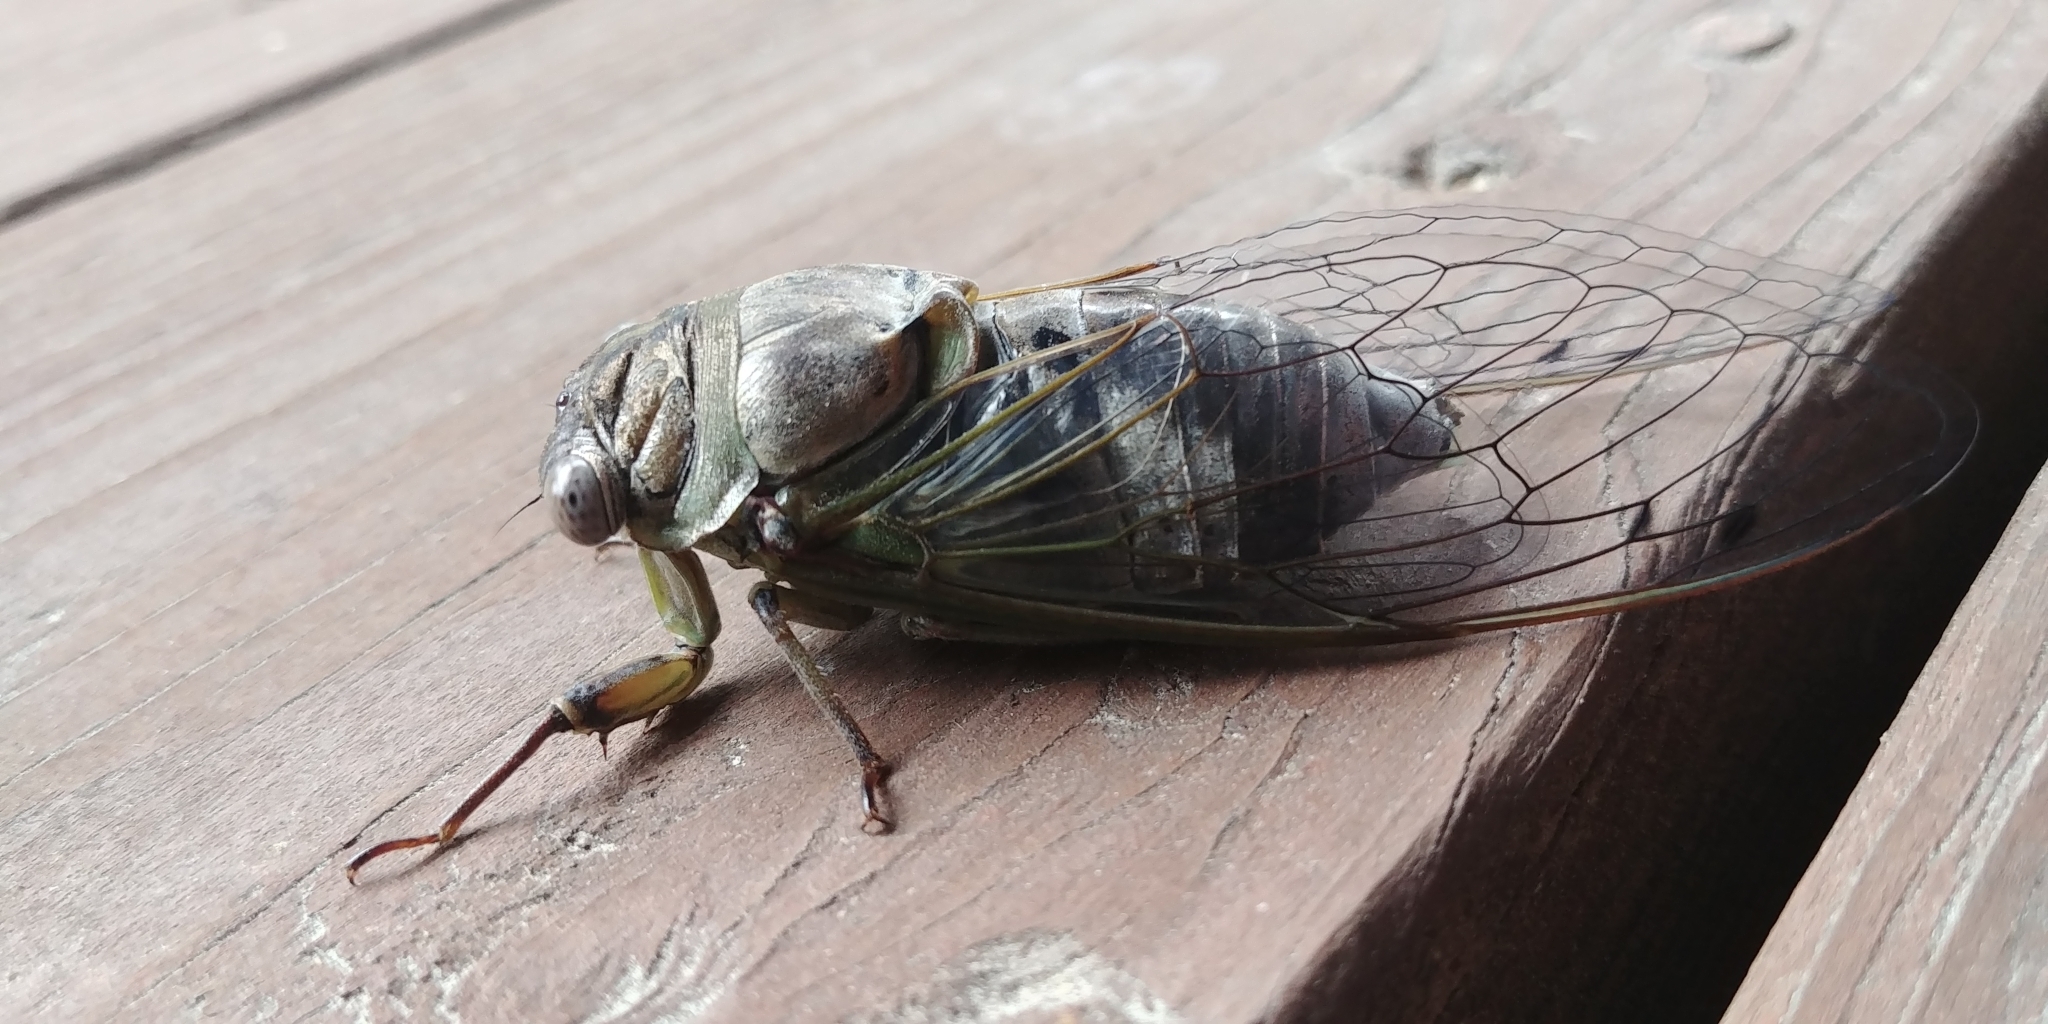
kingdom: Animalia
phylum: Arthropoda
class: Insecta
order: Hemiptera
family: Cicadidae
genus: Diceroprocta
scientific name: Diceroprocta grossa
